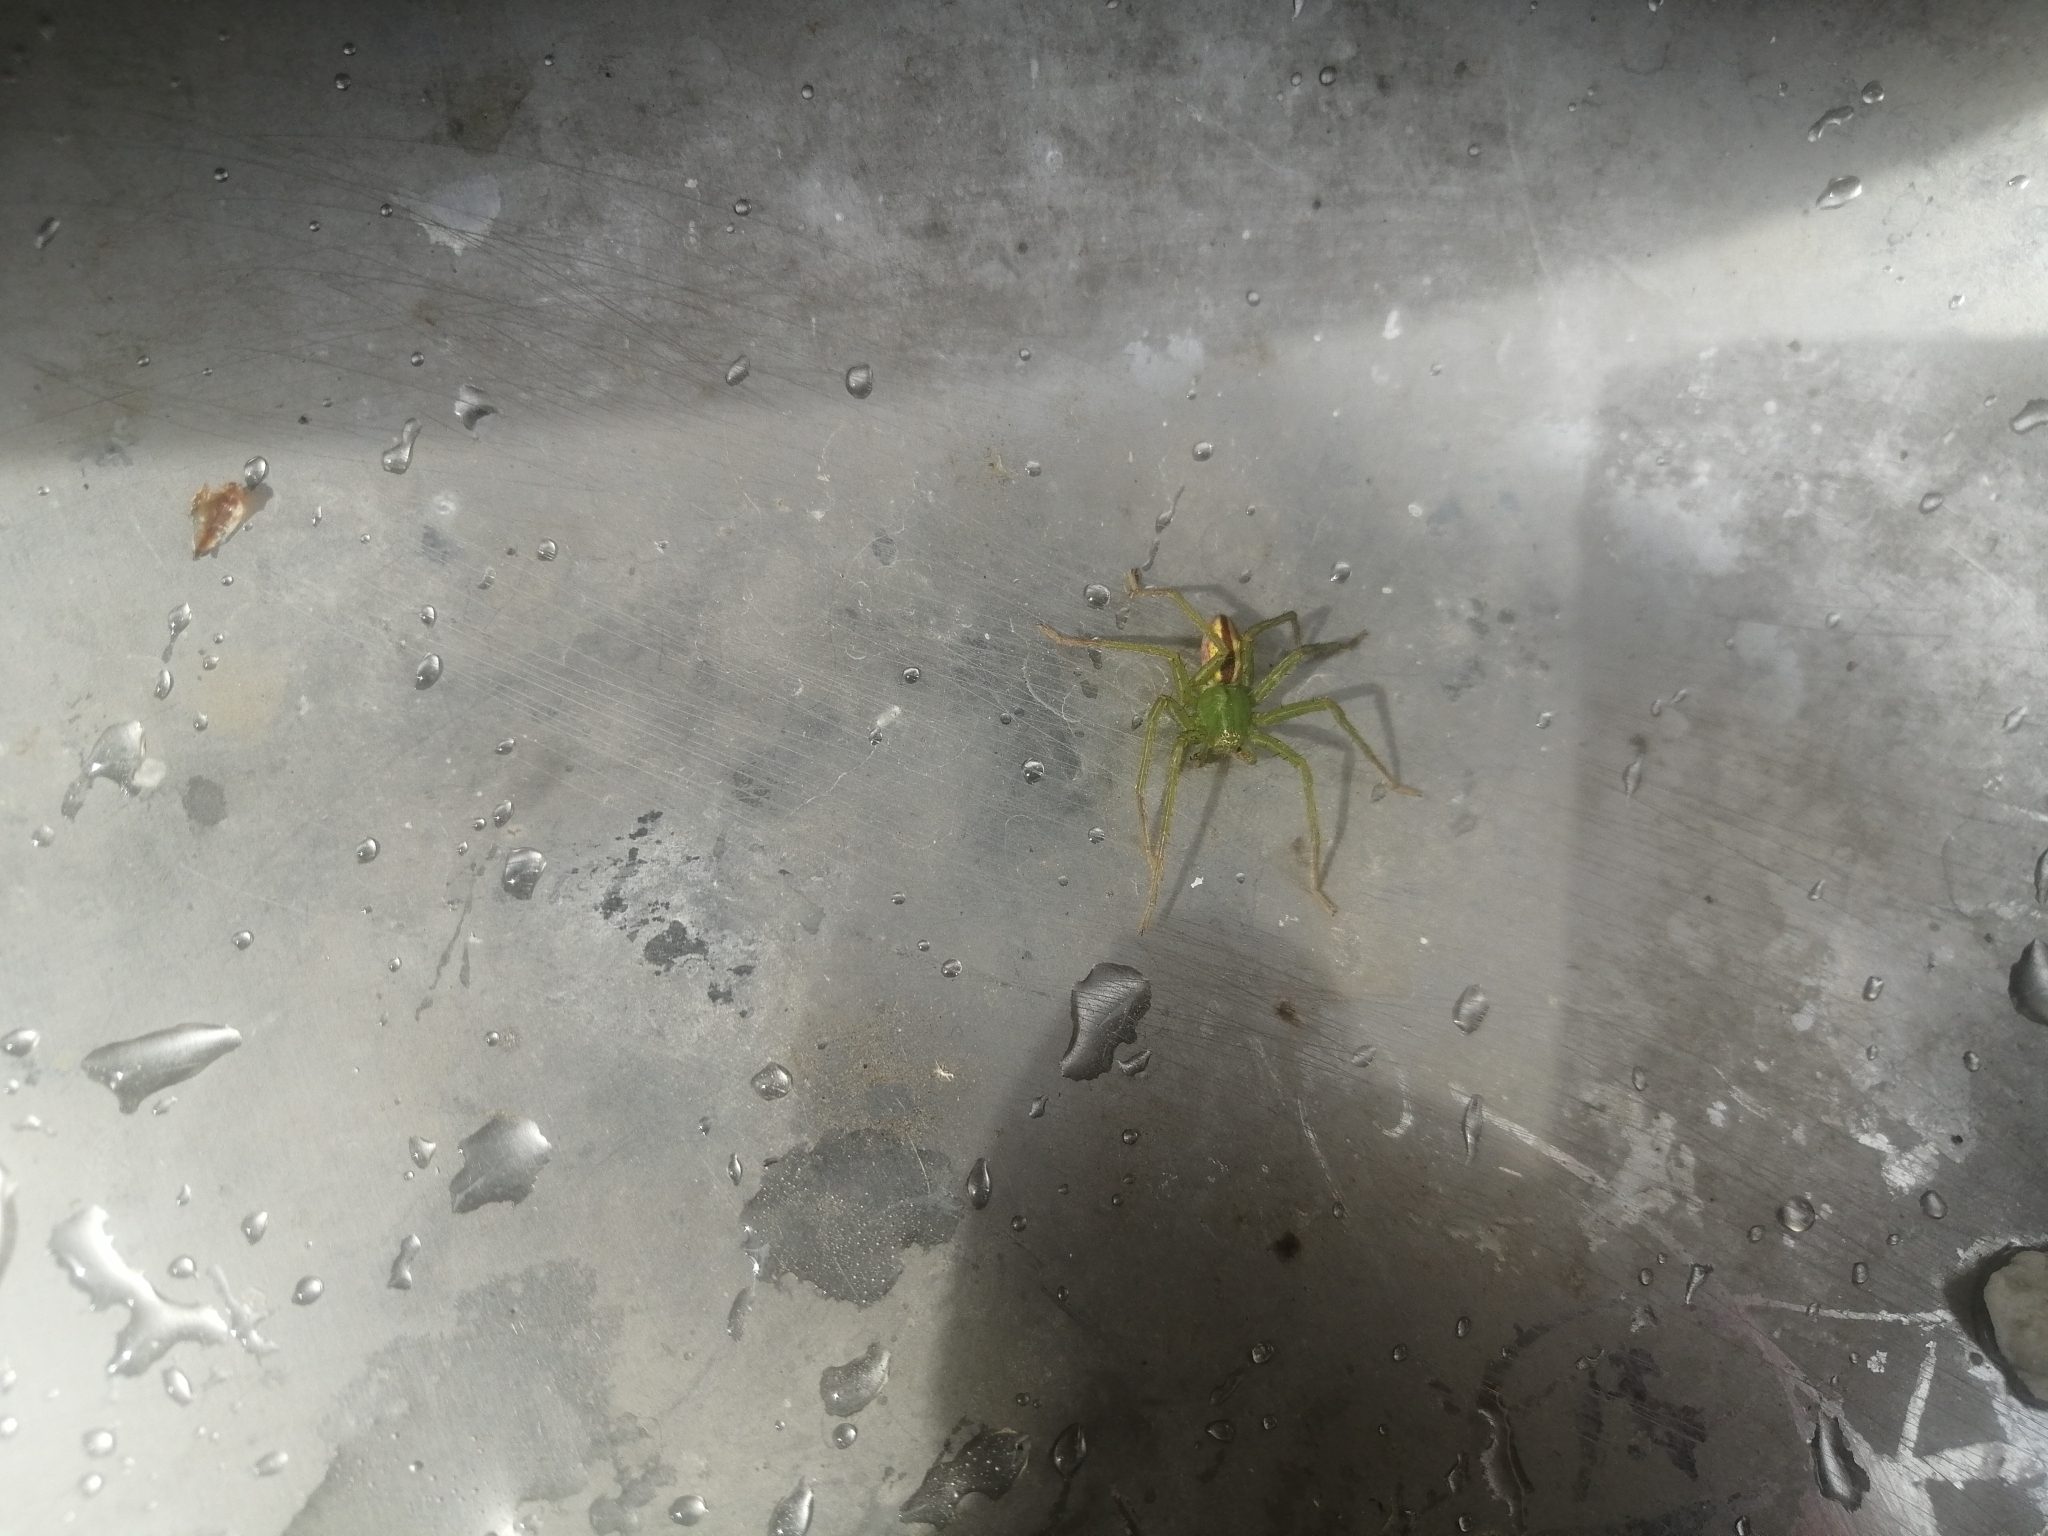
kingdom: Animalia
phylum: Arthropoda
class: Arachnida
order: Araneae
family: Sparassidae
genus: Micrommata
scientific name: Micrommata virescens
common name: Green spider
